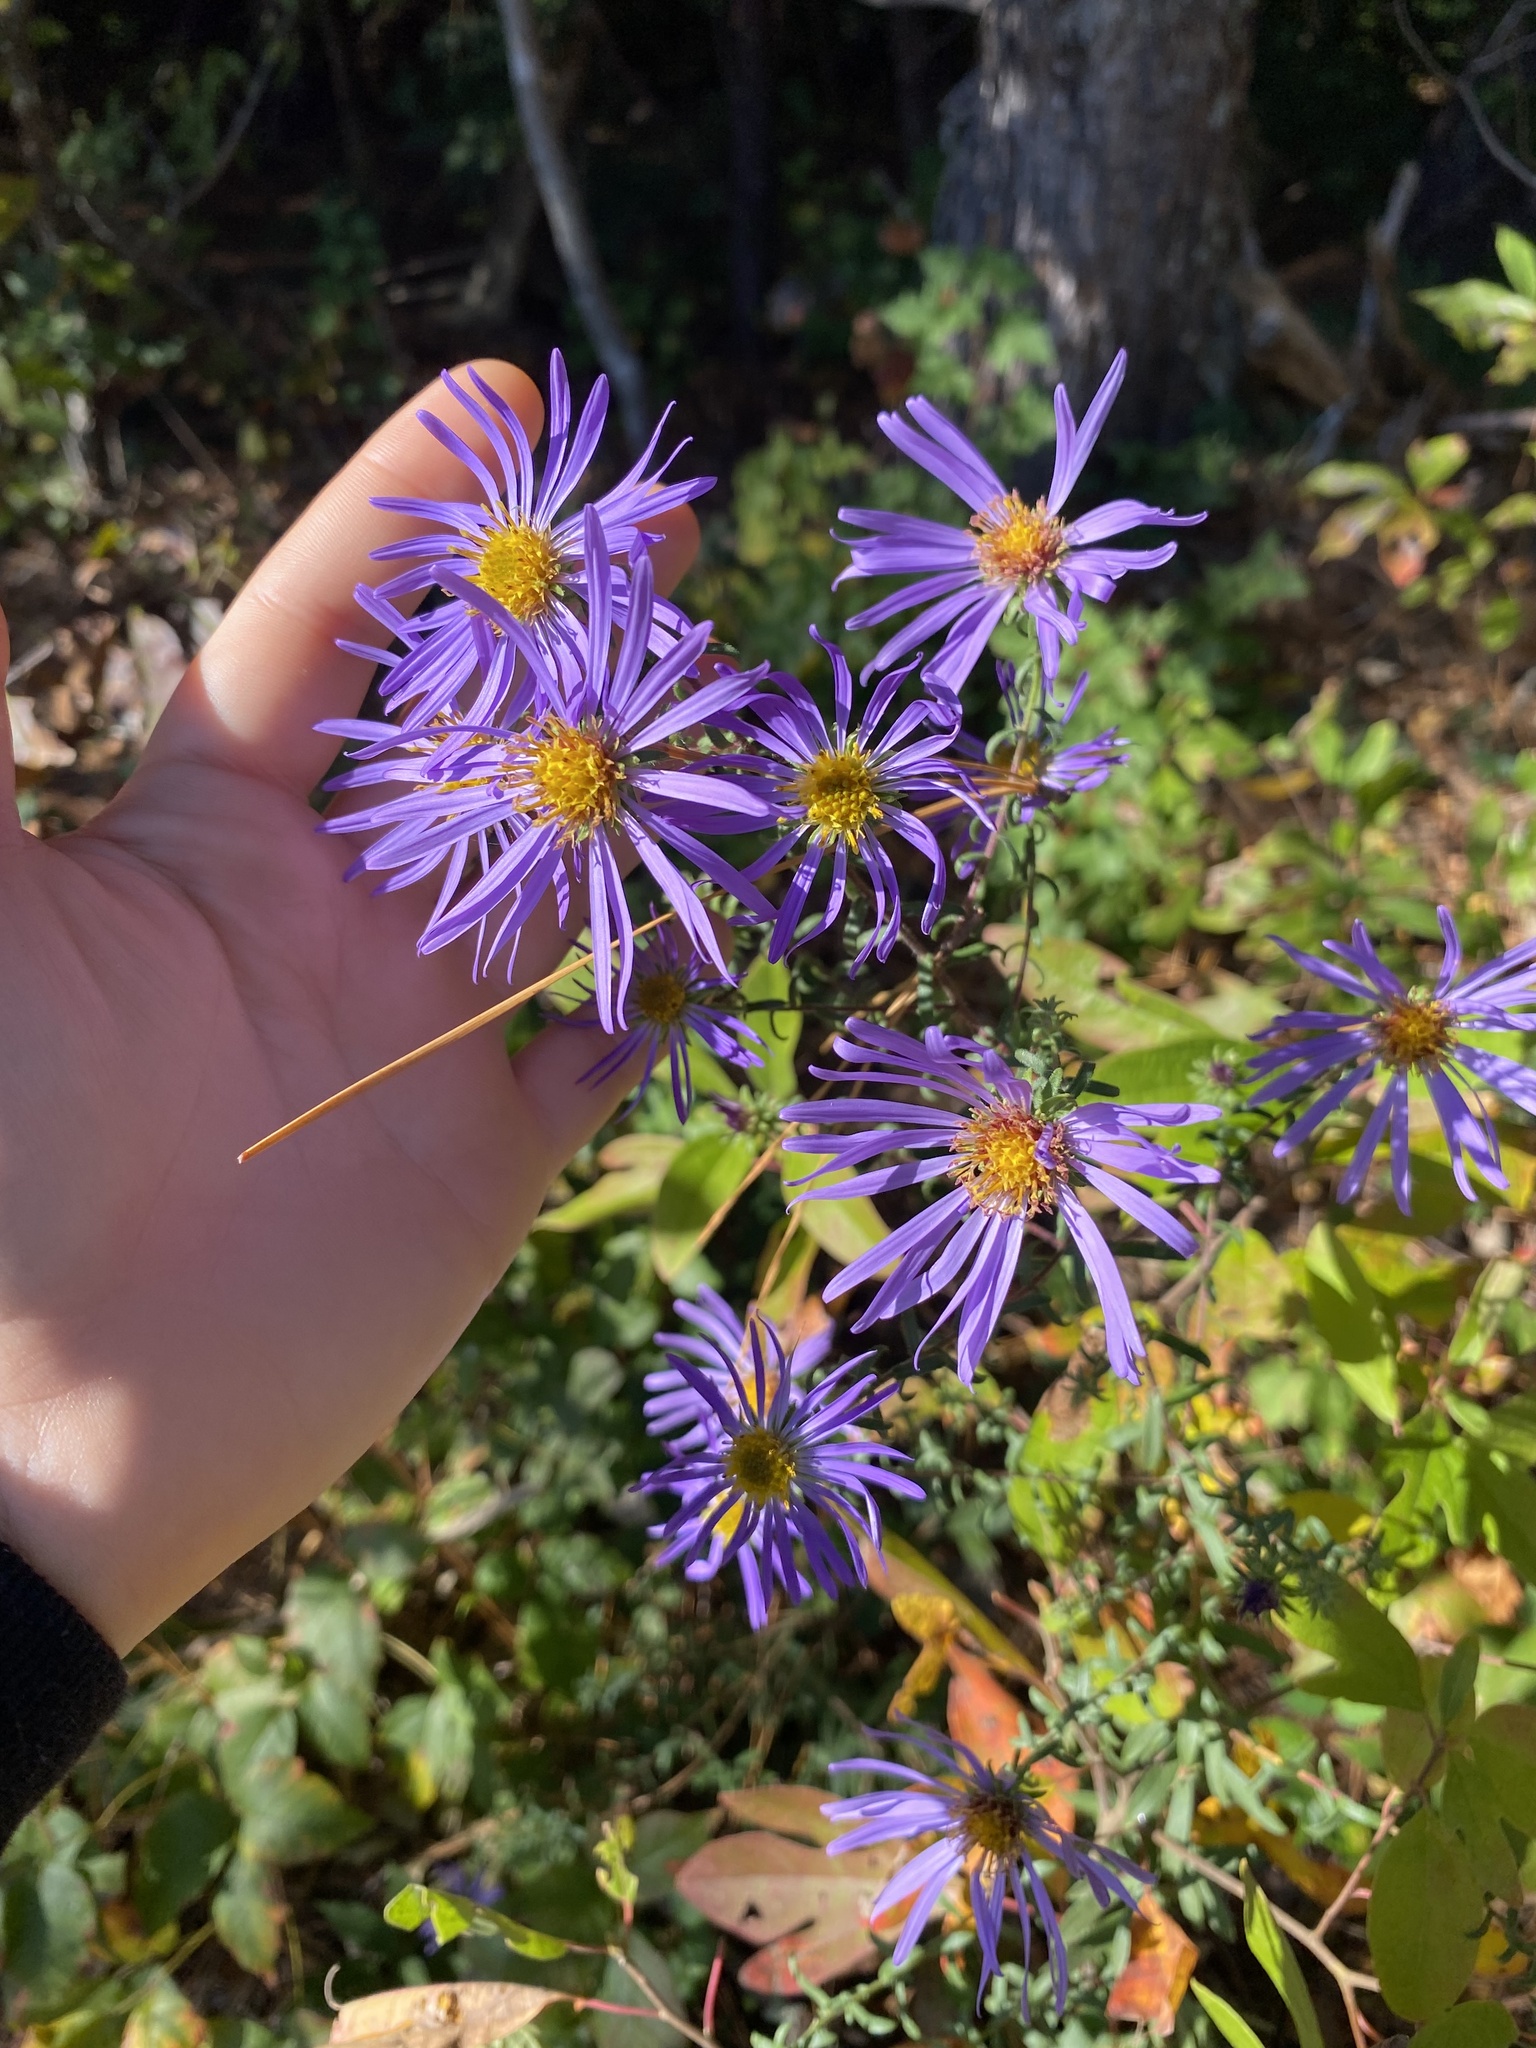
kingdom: Plantae
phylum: Tracheophyta
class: Magnoliopsida
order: Asterales
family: Asteraceae
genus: Symphyotrichum
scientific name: Symphyotrichum grandiflorum
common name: Big-head aster
